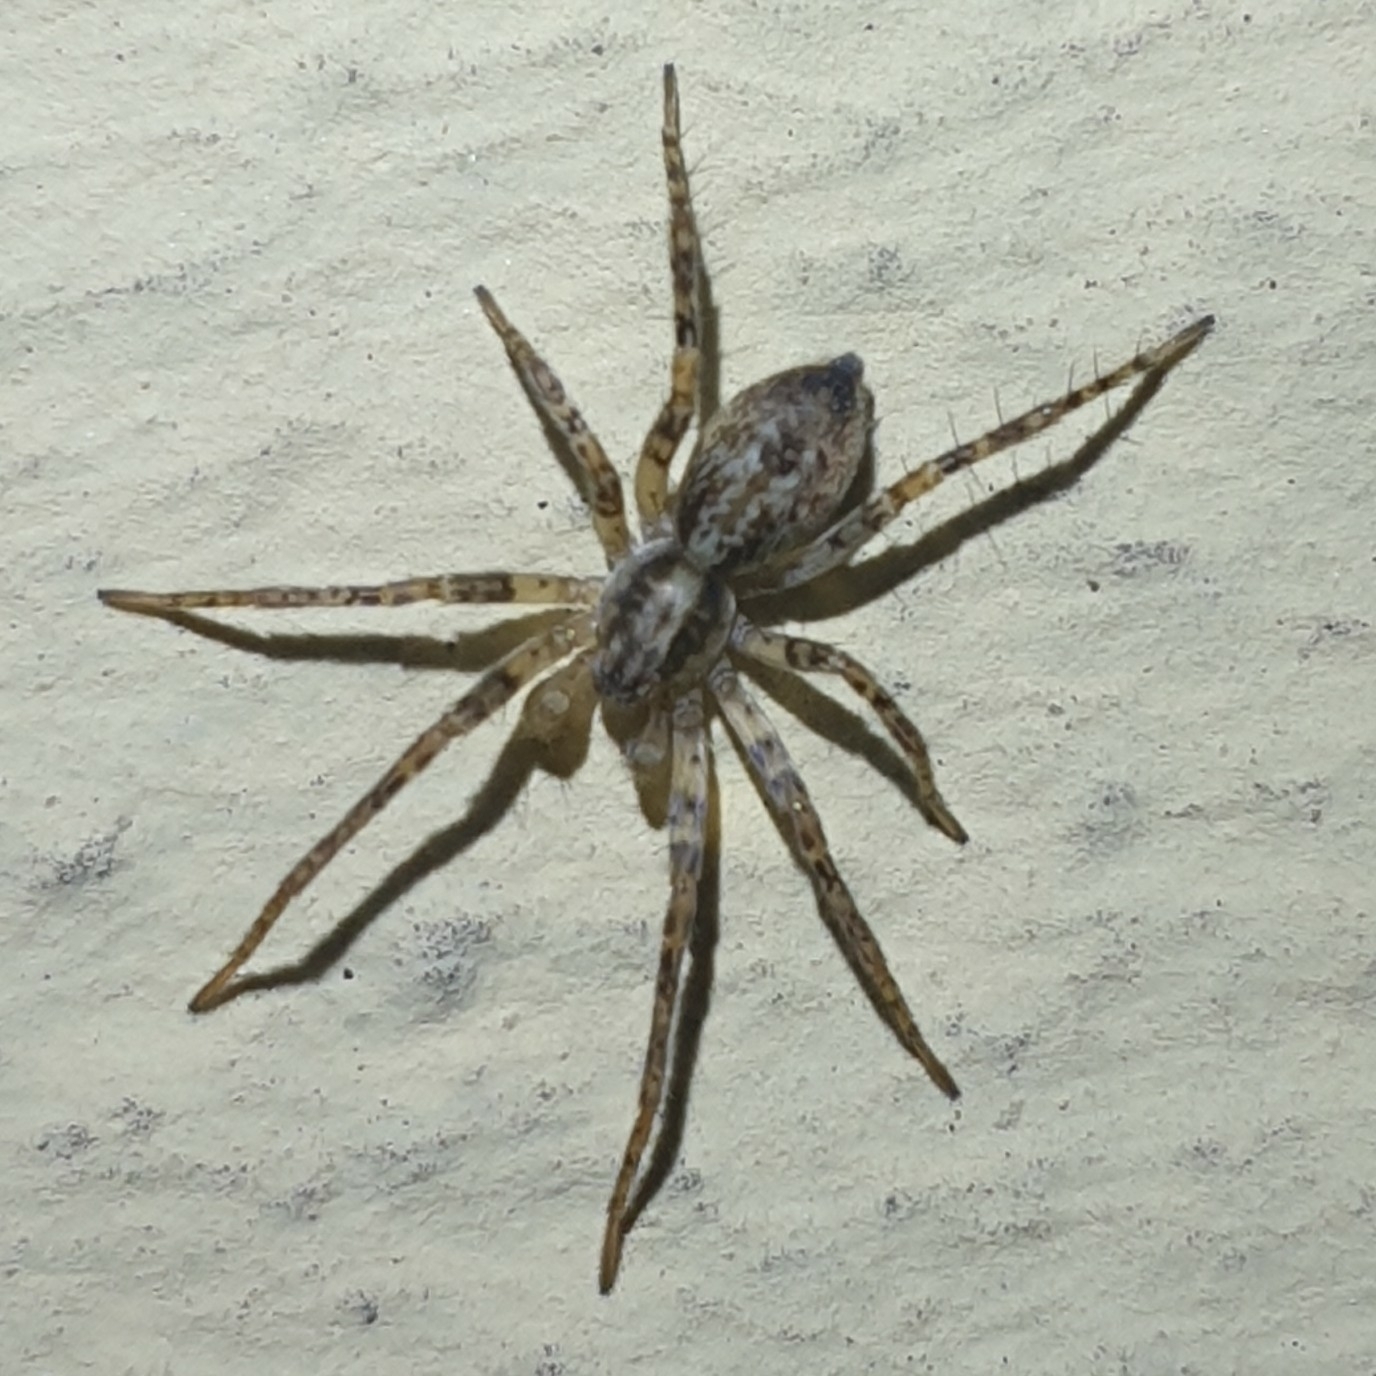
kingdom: Animalia
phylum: Arthropoda
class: Arachnida
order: Araneae
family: Anyphaenidae
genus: Anyphaena
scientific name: Anyphaena accentuata
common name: Buzzing spider
